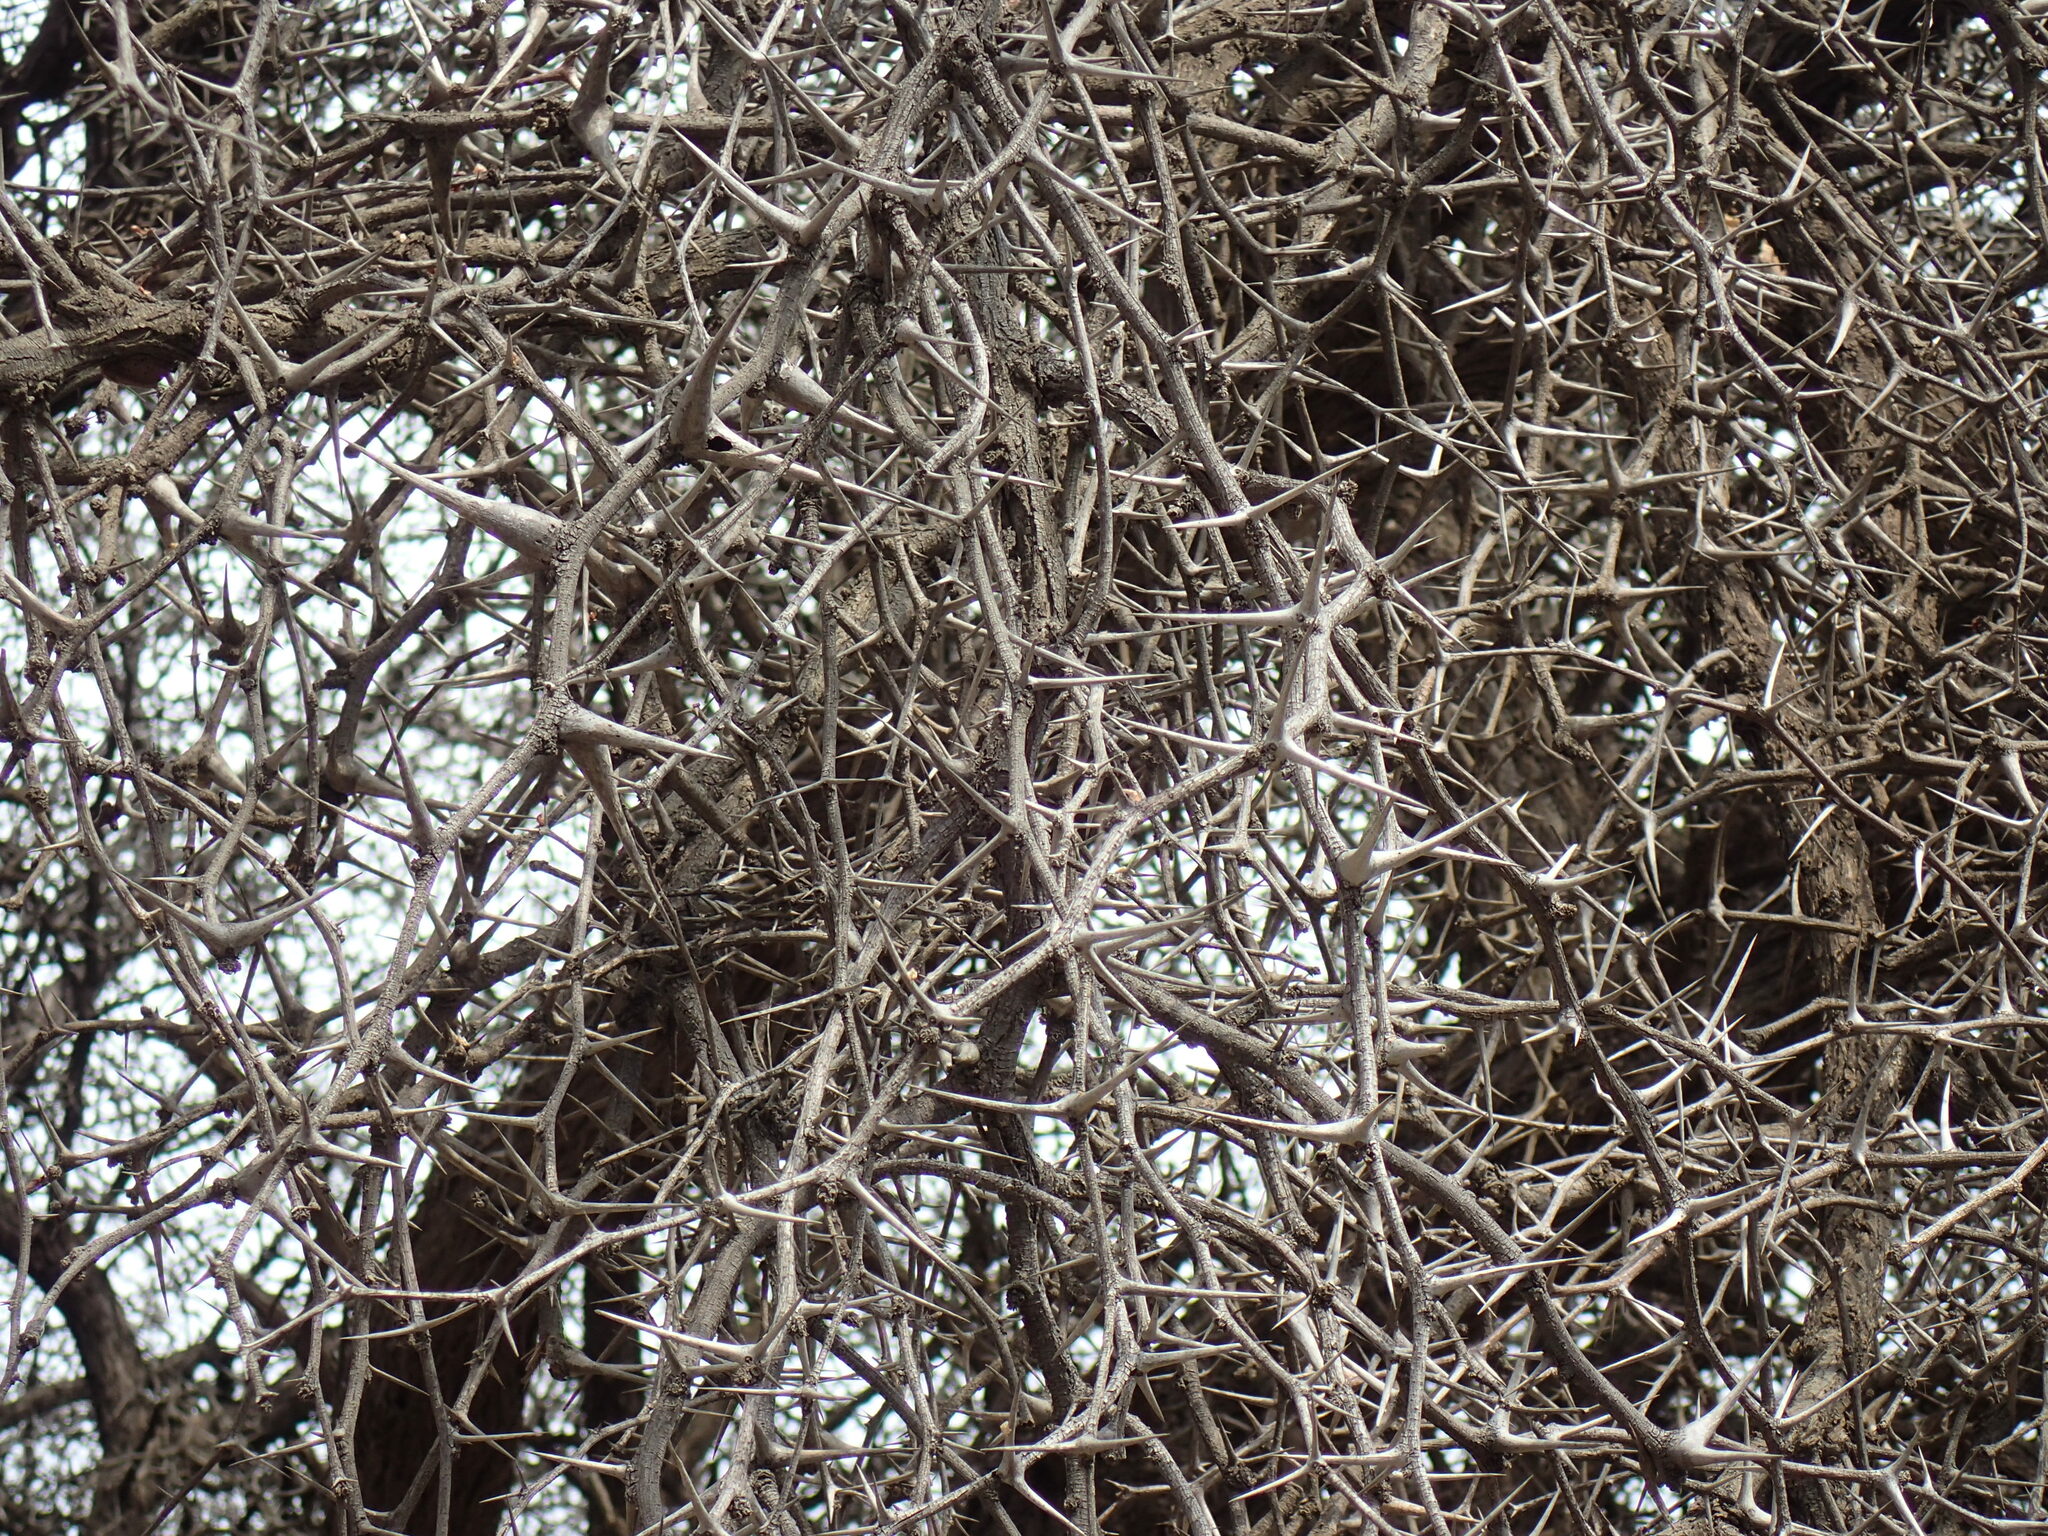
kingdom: Plantae
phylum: Tracheophyta
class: Magnoliopsida
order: Fabales
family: Fabaceae
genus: Vachellia
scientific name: Vachellia erioloba
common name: Camel thorn
